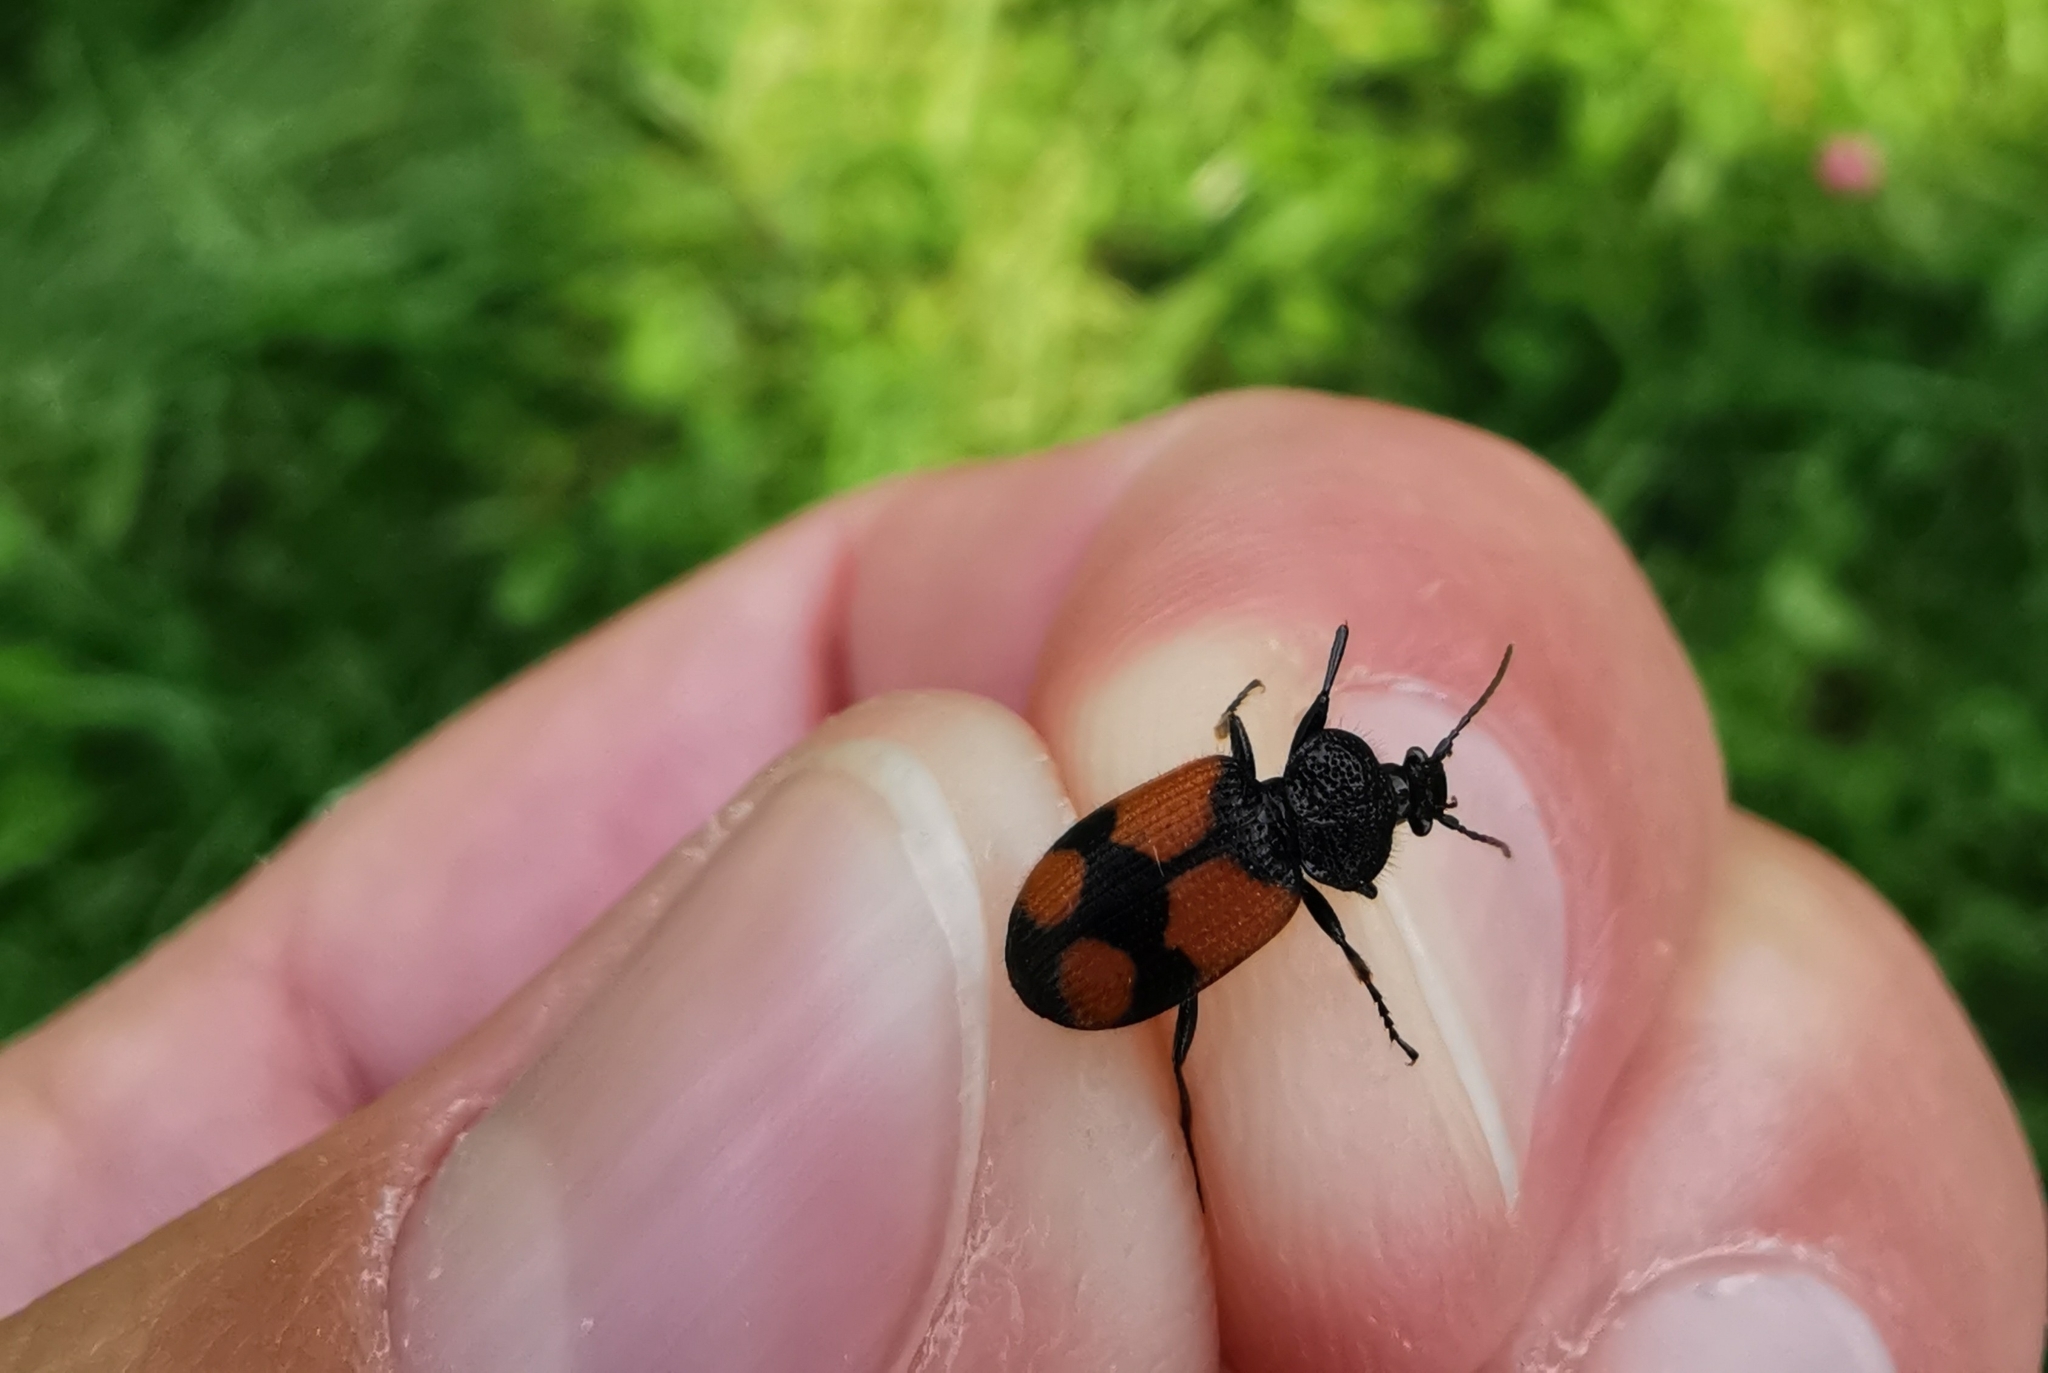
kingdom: Animalia
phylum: Arthropoda
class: Insecta
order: Coleoptera
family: Carabidae
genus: Panagaeus
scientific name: Panagaeus cruxmajor
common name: Crucifix ground beetle
